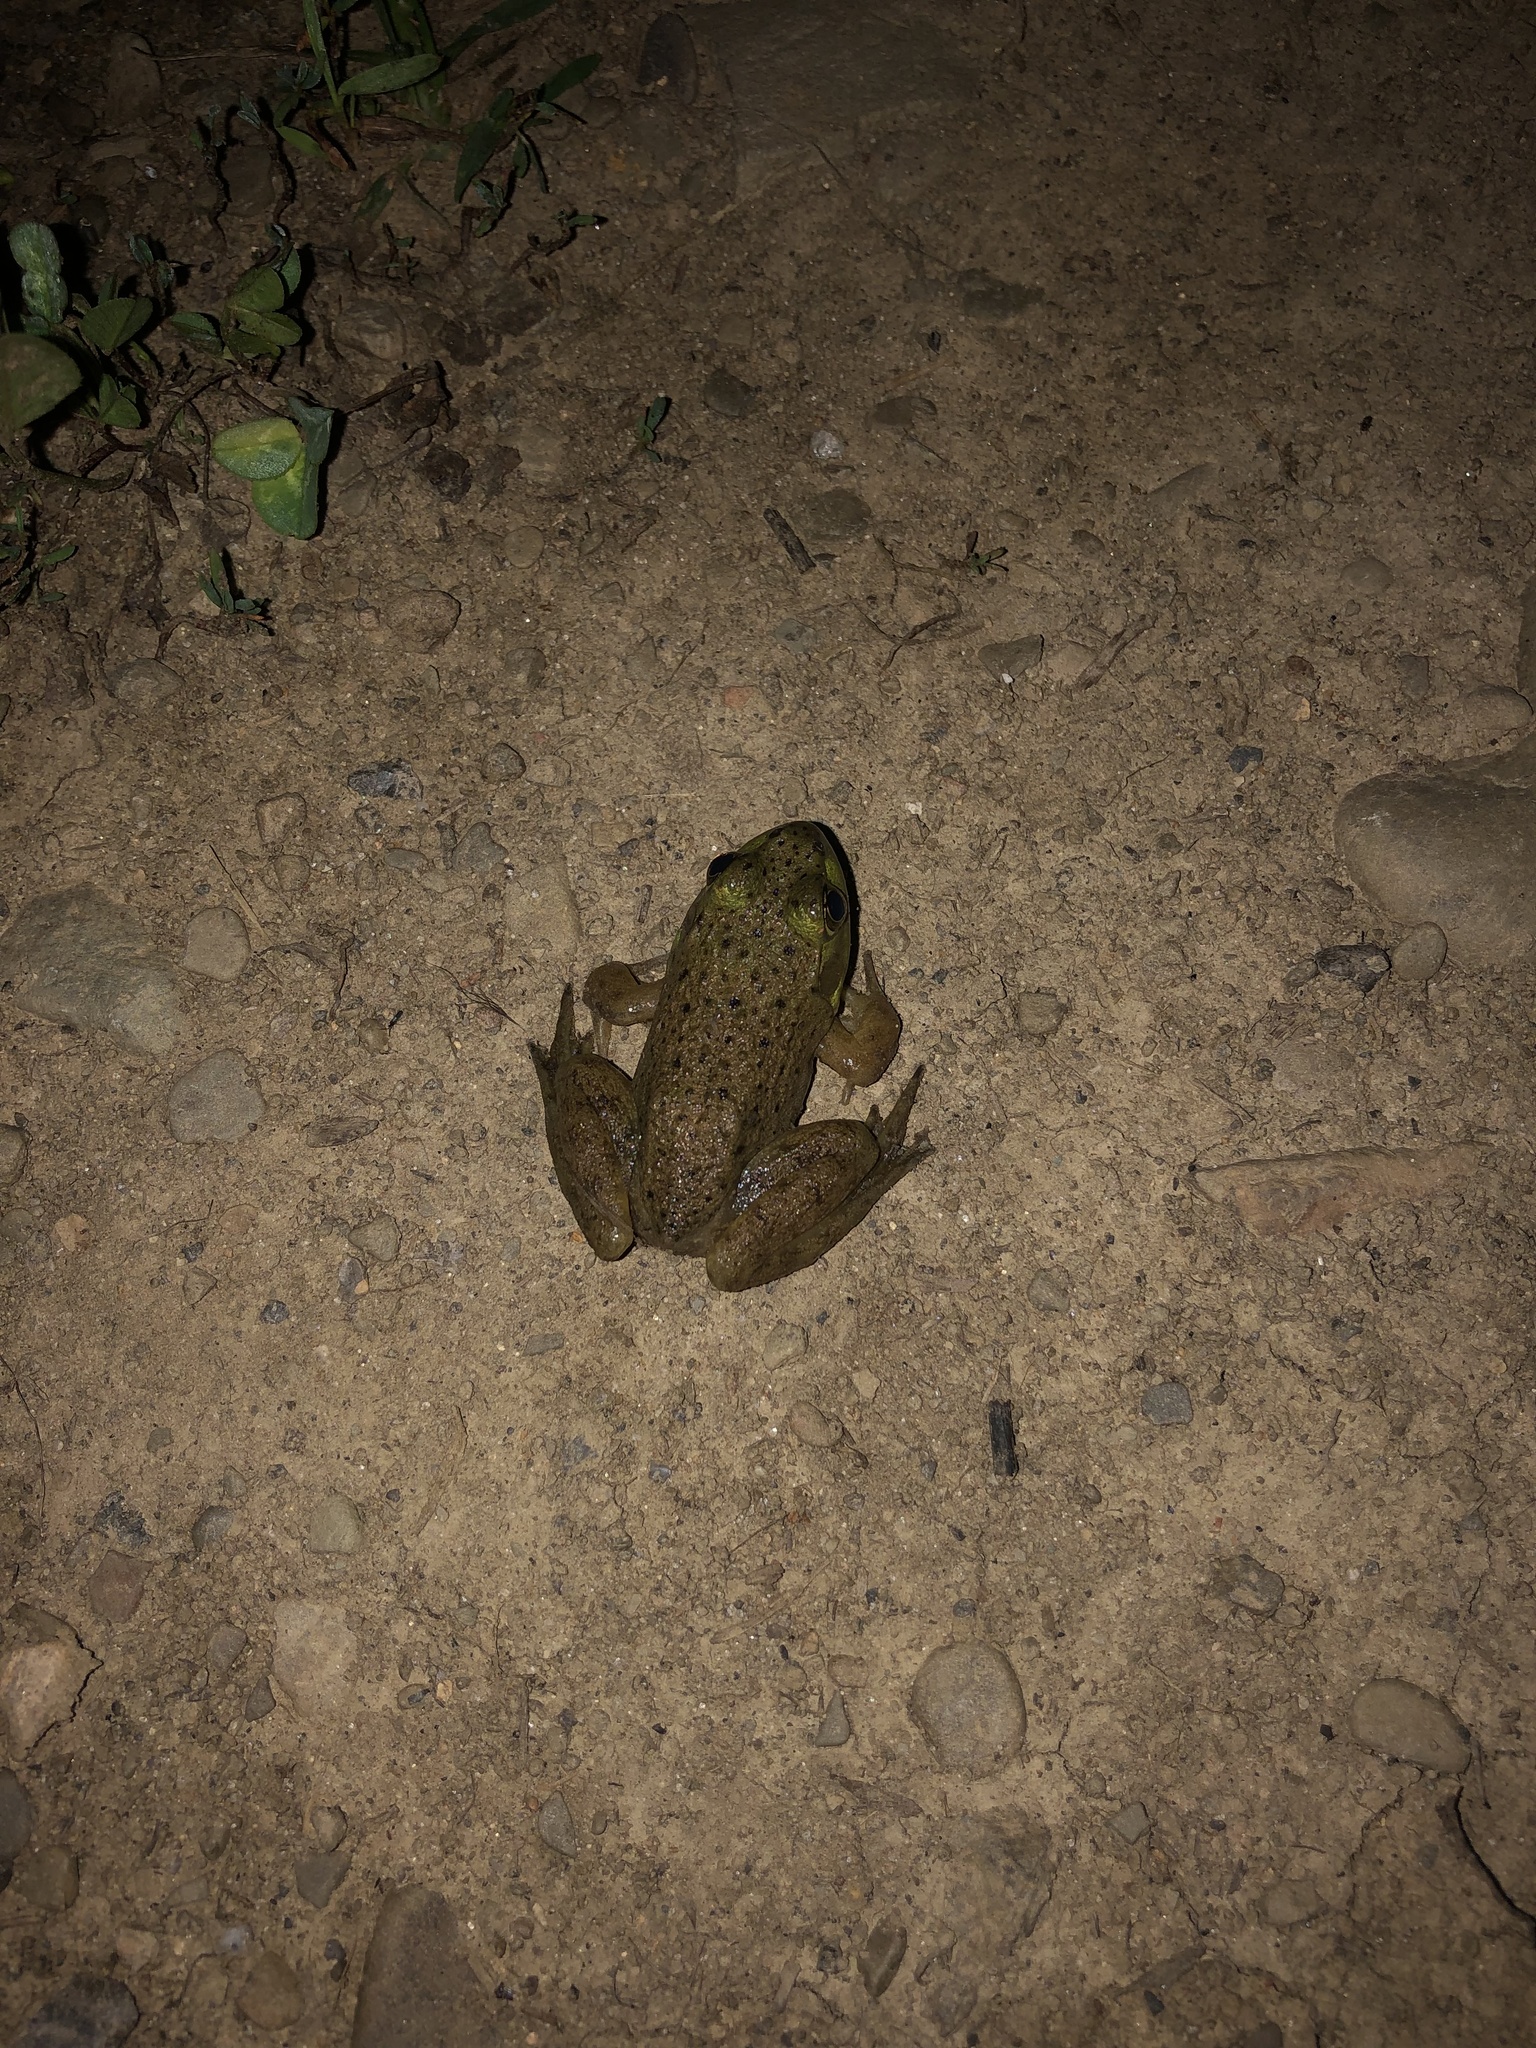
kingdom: Animalia
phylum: Chordata
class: Amphibia
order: Anura
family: Ranidae
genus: Lithobates
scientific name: Lithobates clamitans
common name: Green frog
